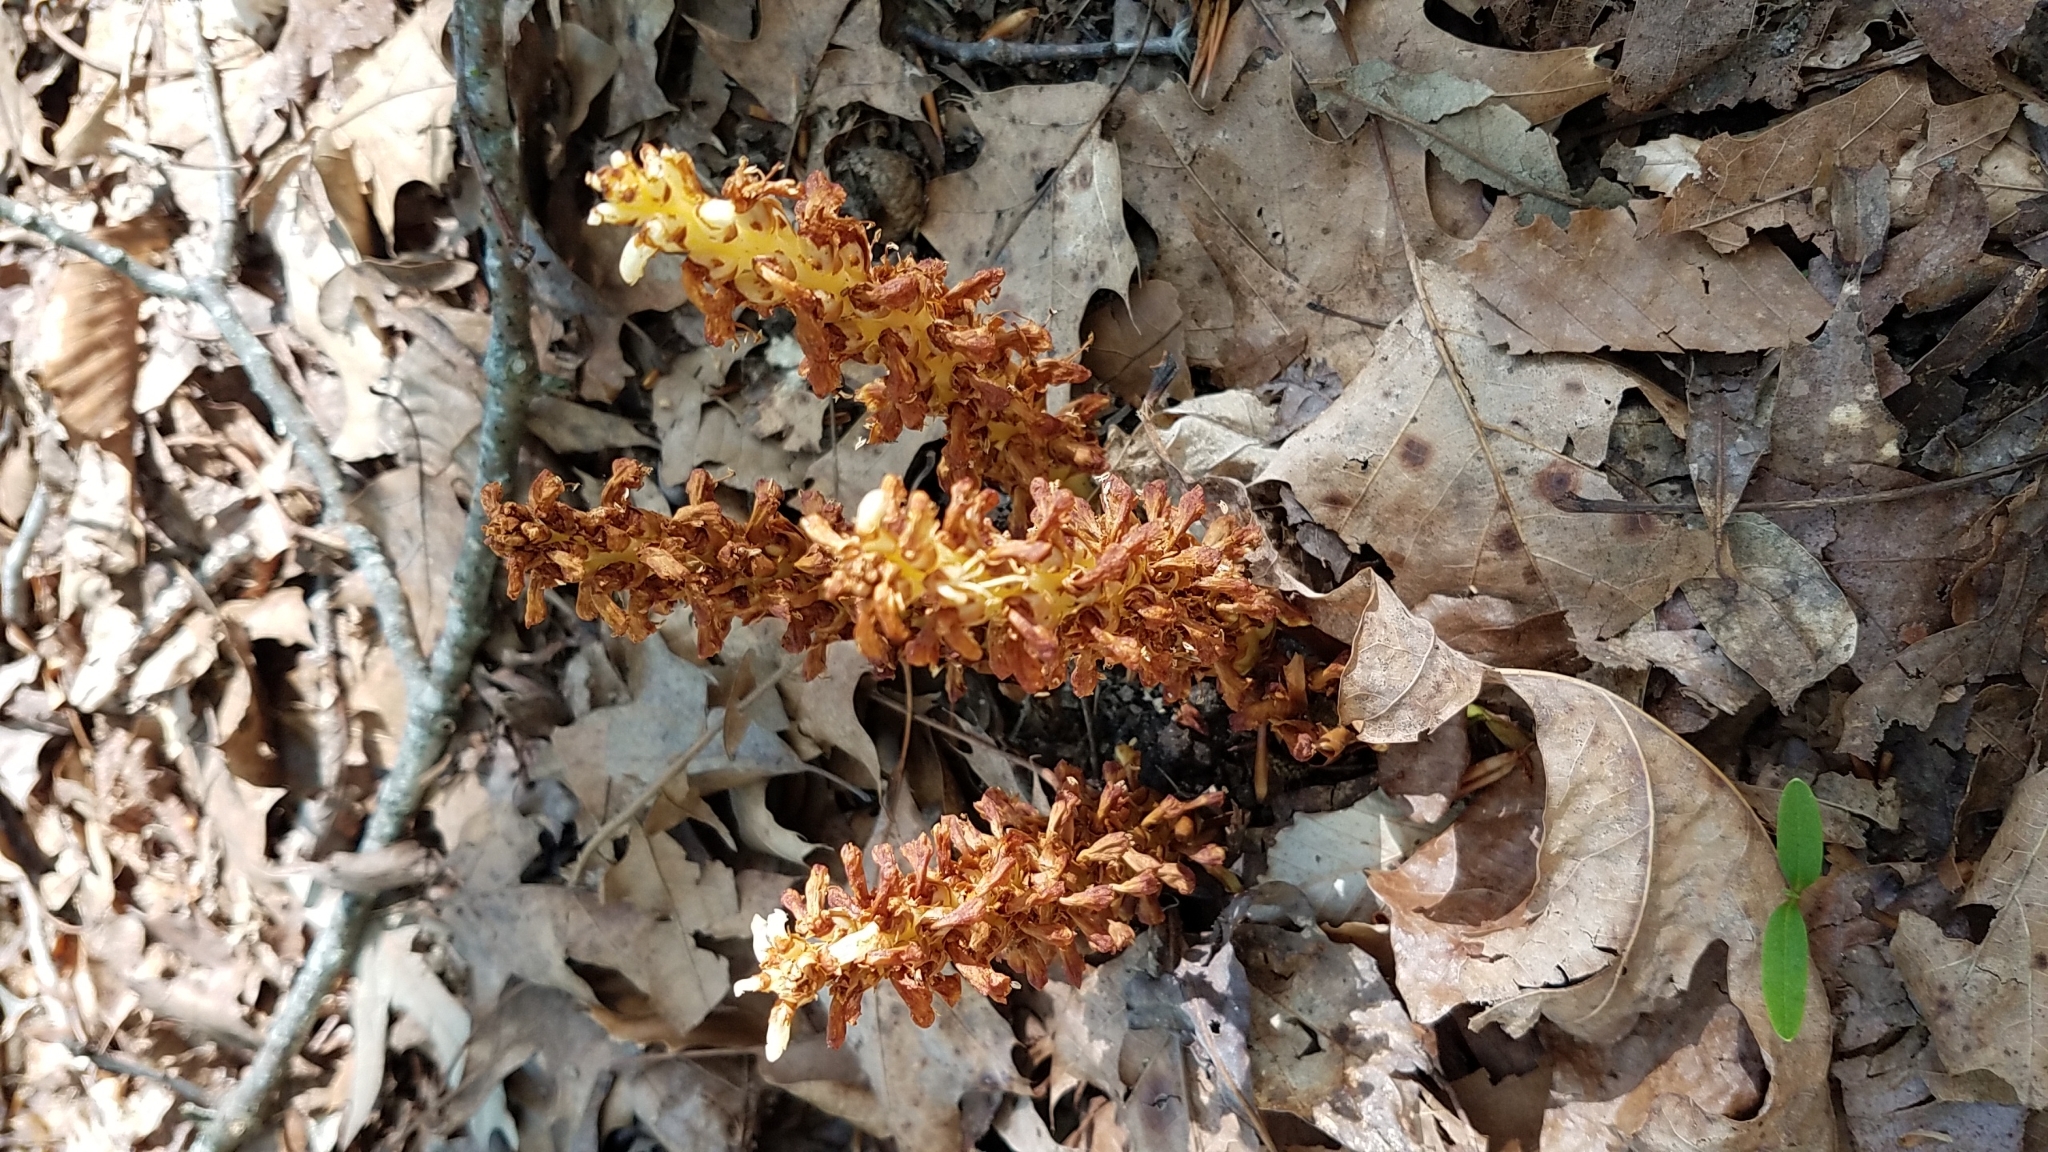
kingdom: Plantae
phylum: Tracheophyta
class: Magnoliopsida
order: Lamiales
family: Orobanchaceae
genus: Conopholis
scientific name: Conopholis americana
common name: American cancer-root
